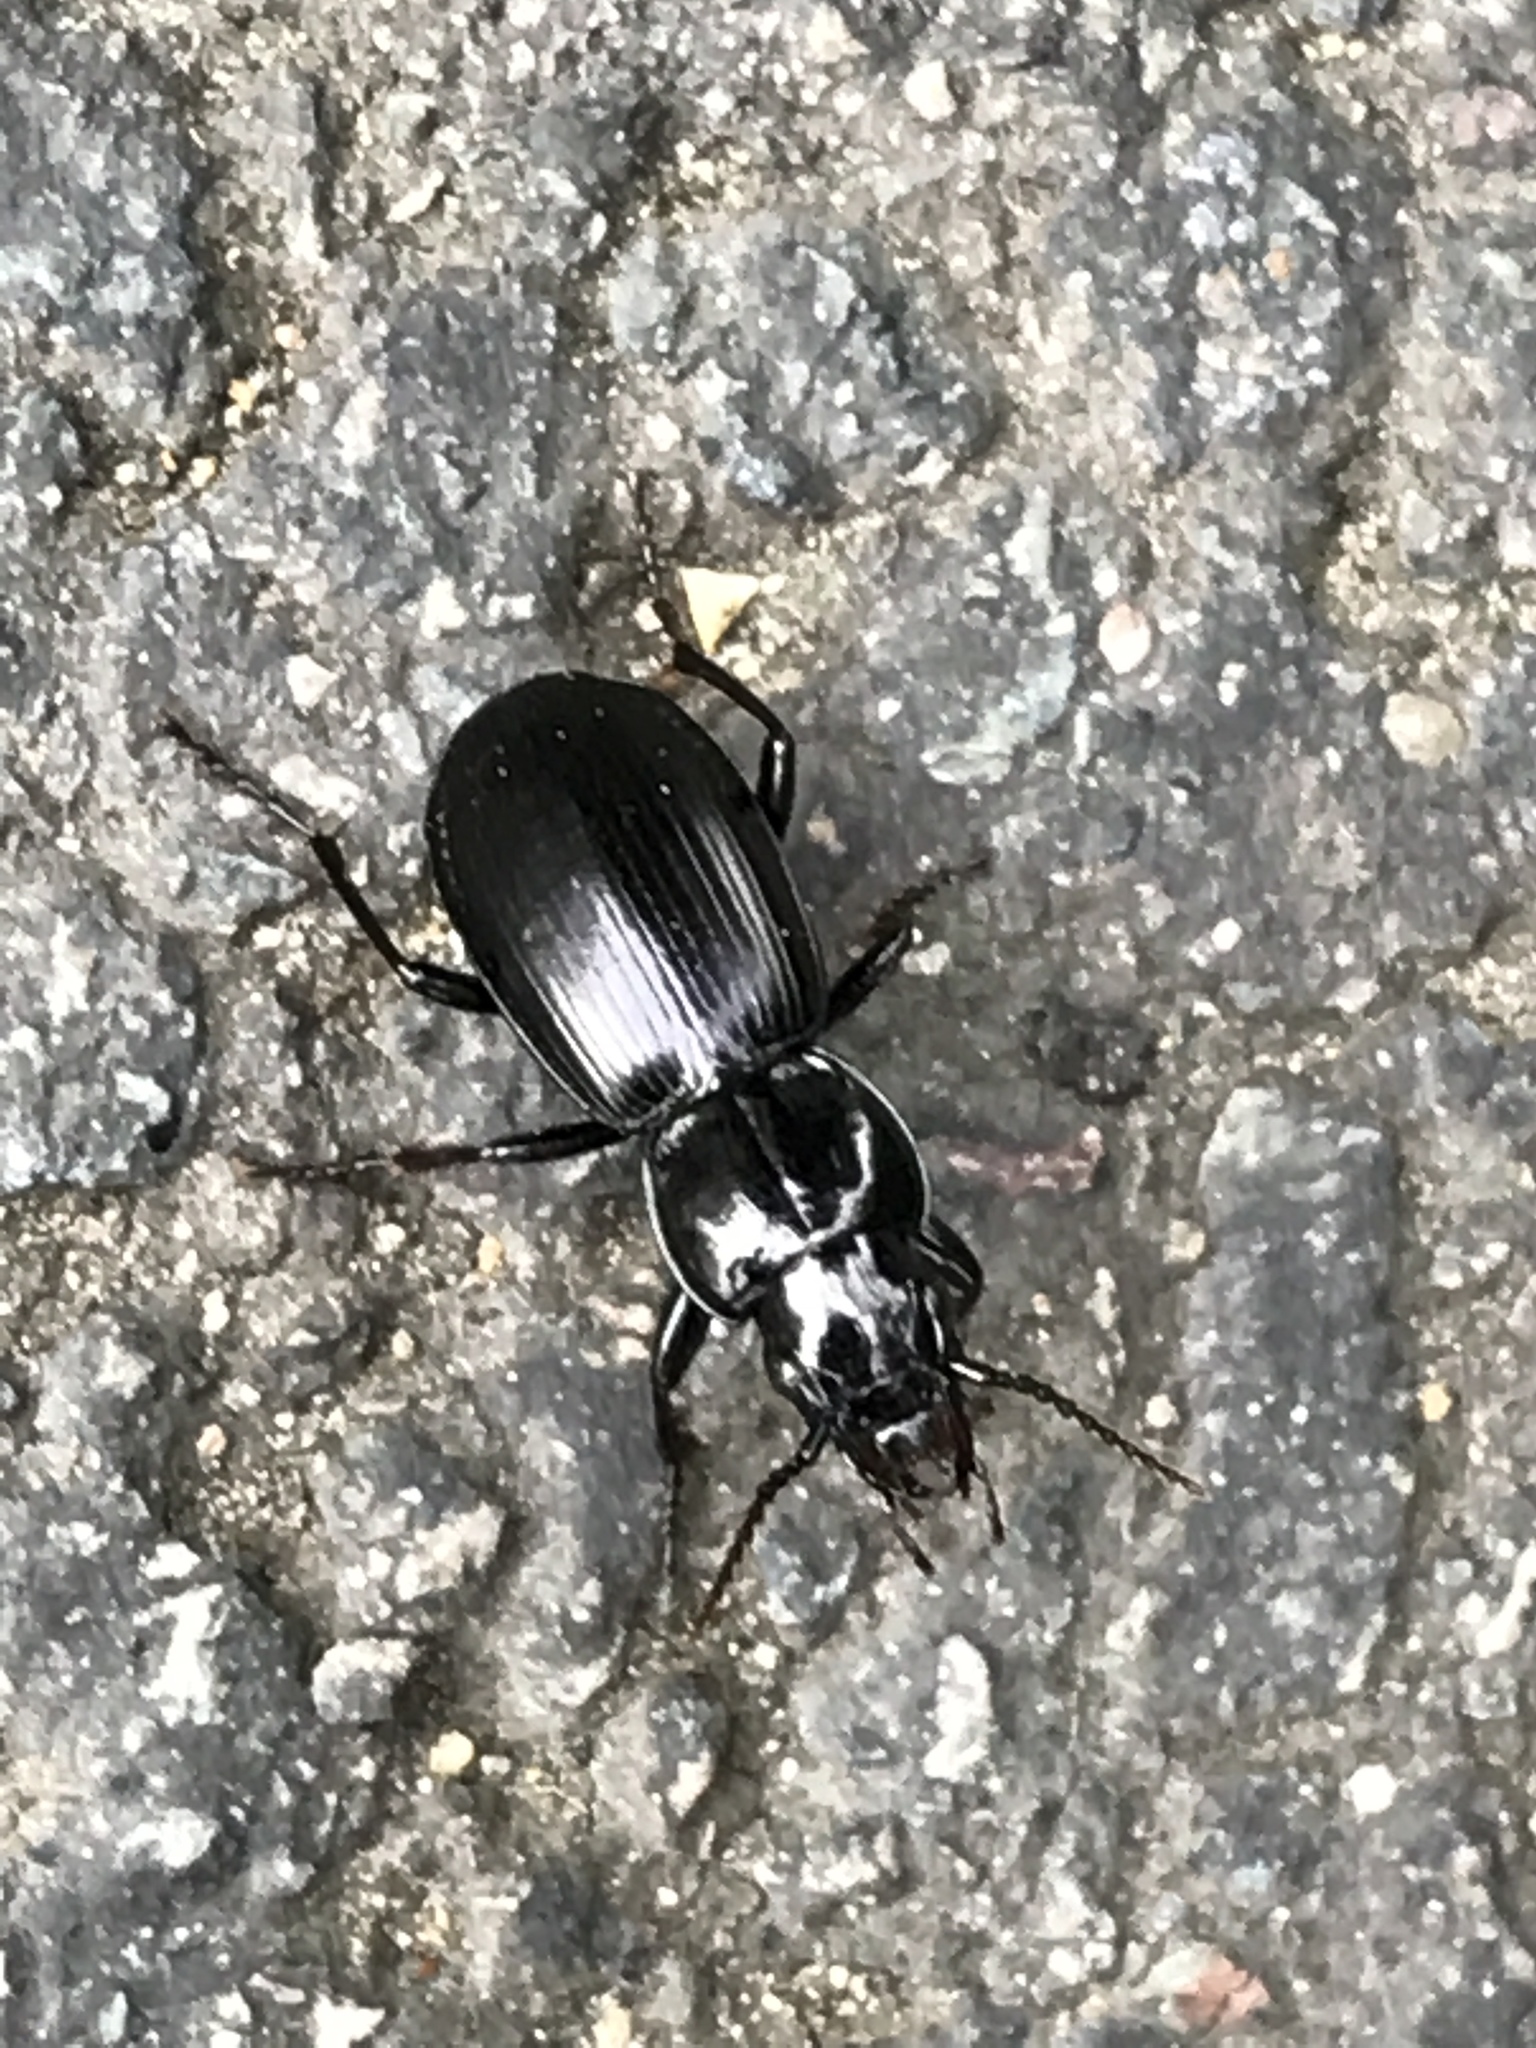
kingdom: Animalia
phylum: Arthropoda
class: Insecta
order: Coleoptera
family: Carabidae
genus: Pterostichus
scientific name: Pterostichus madidus
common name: Black clock
